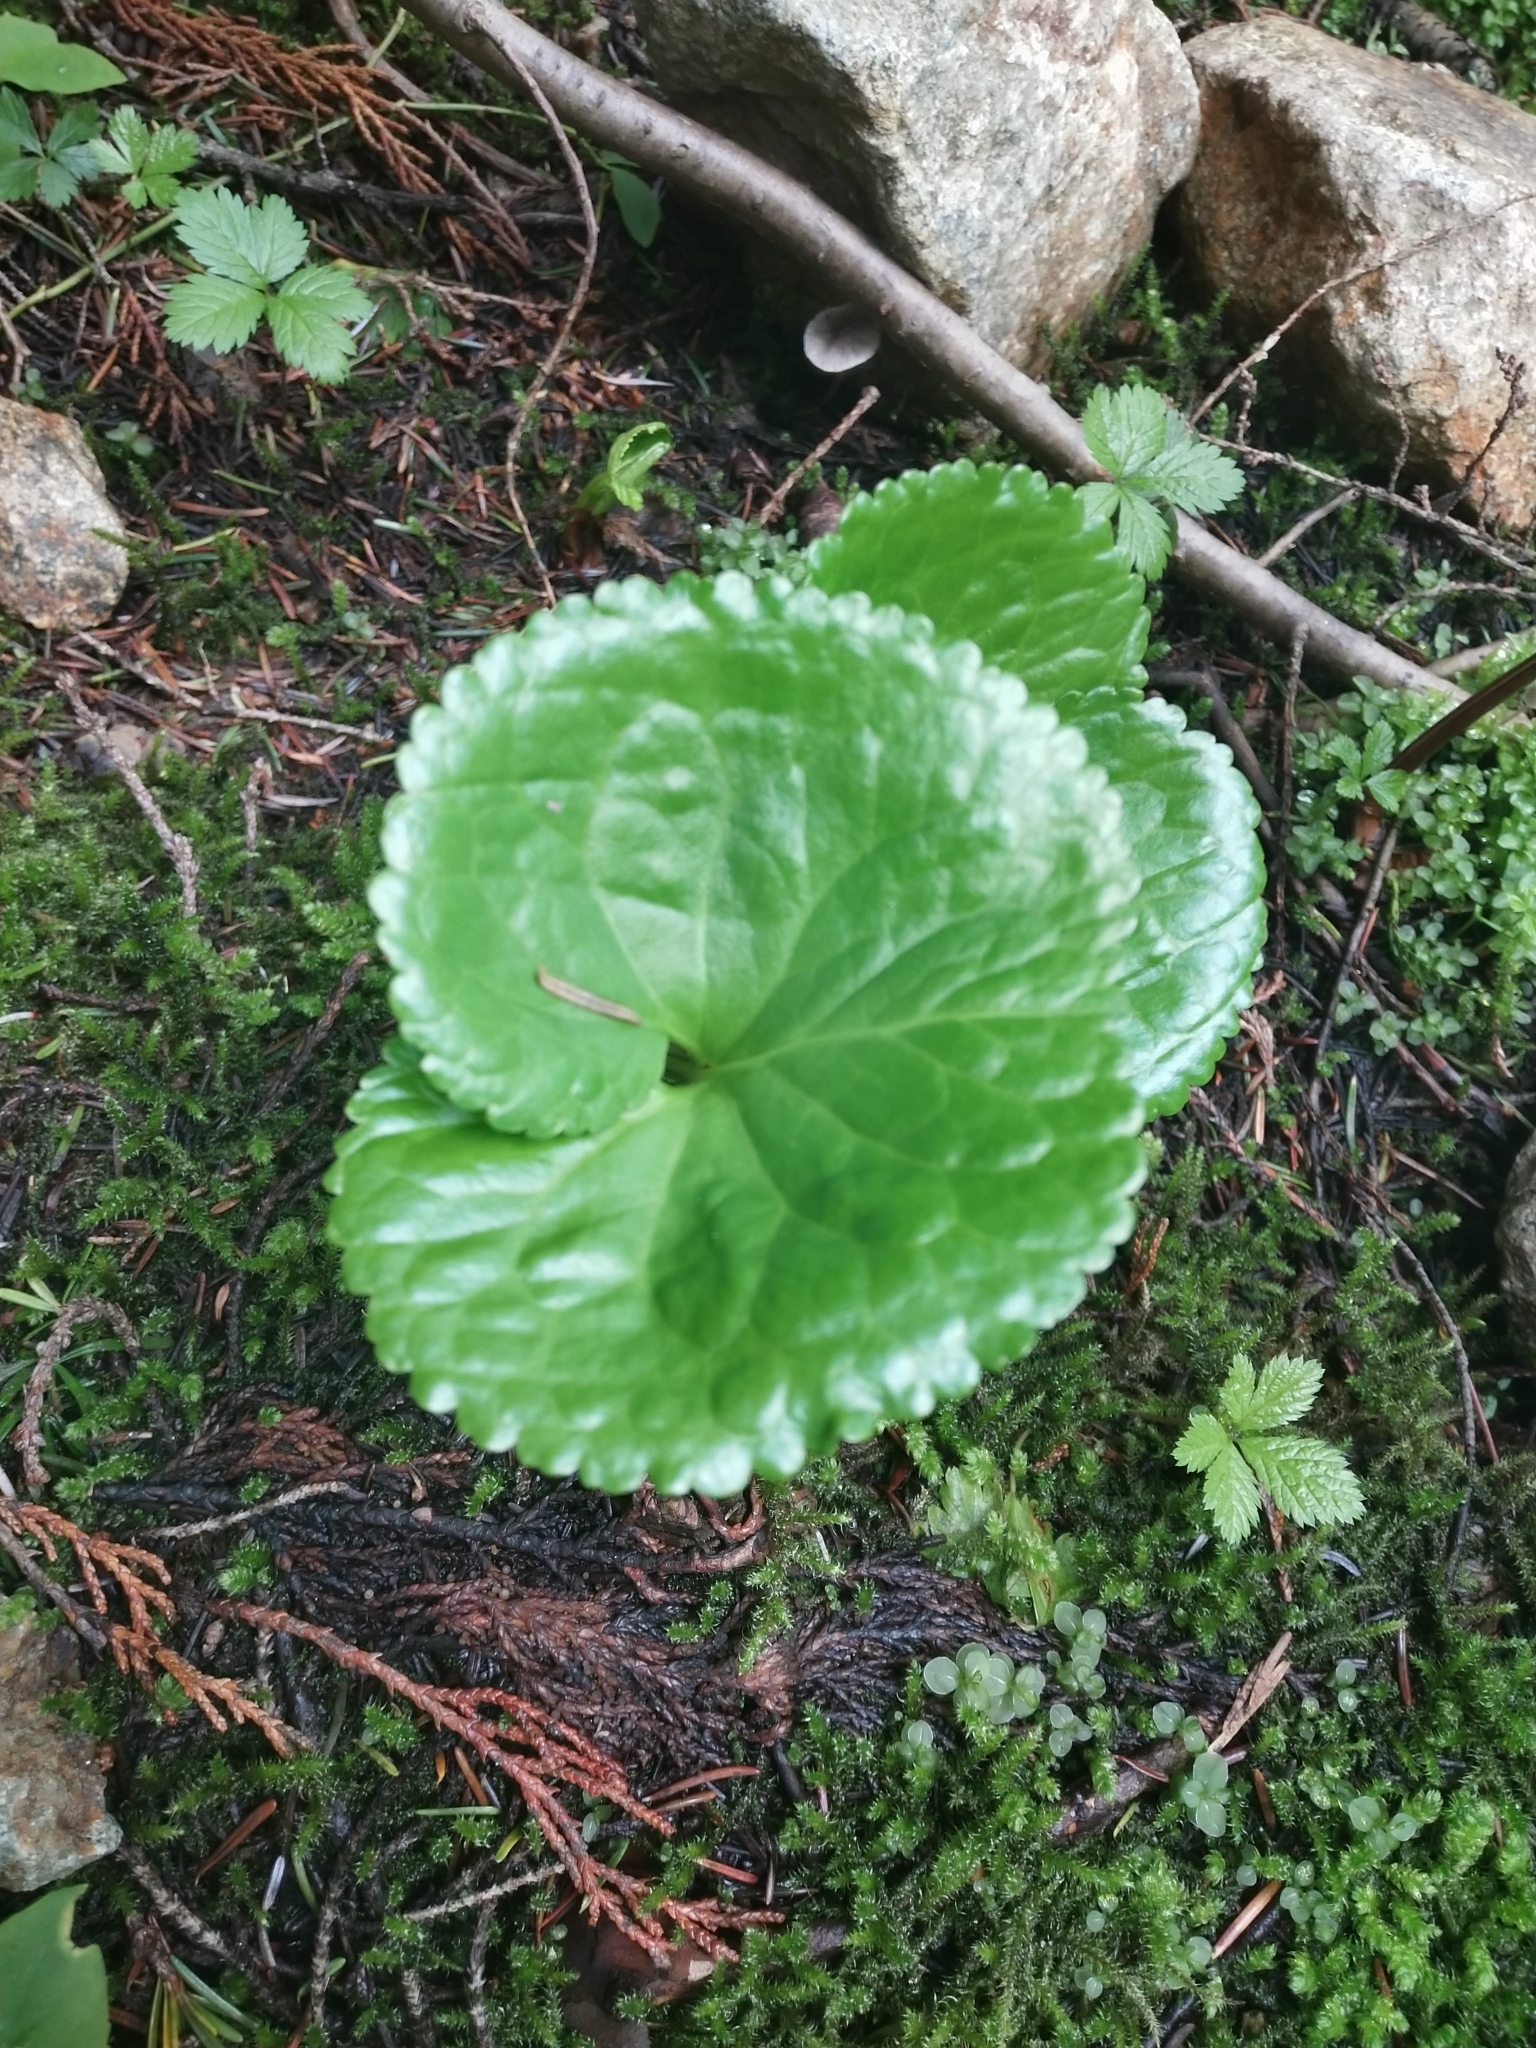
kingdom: Plantae
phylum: Tracheophyta
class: Magnoliopsida
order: Asterales
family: Menyanthaceae
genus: Nephrophyllidium
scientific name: Nephrophyllidium crista-galli
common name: Deer-cabbage
